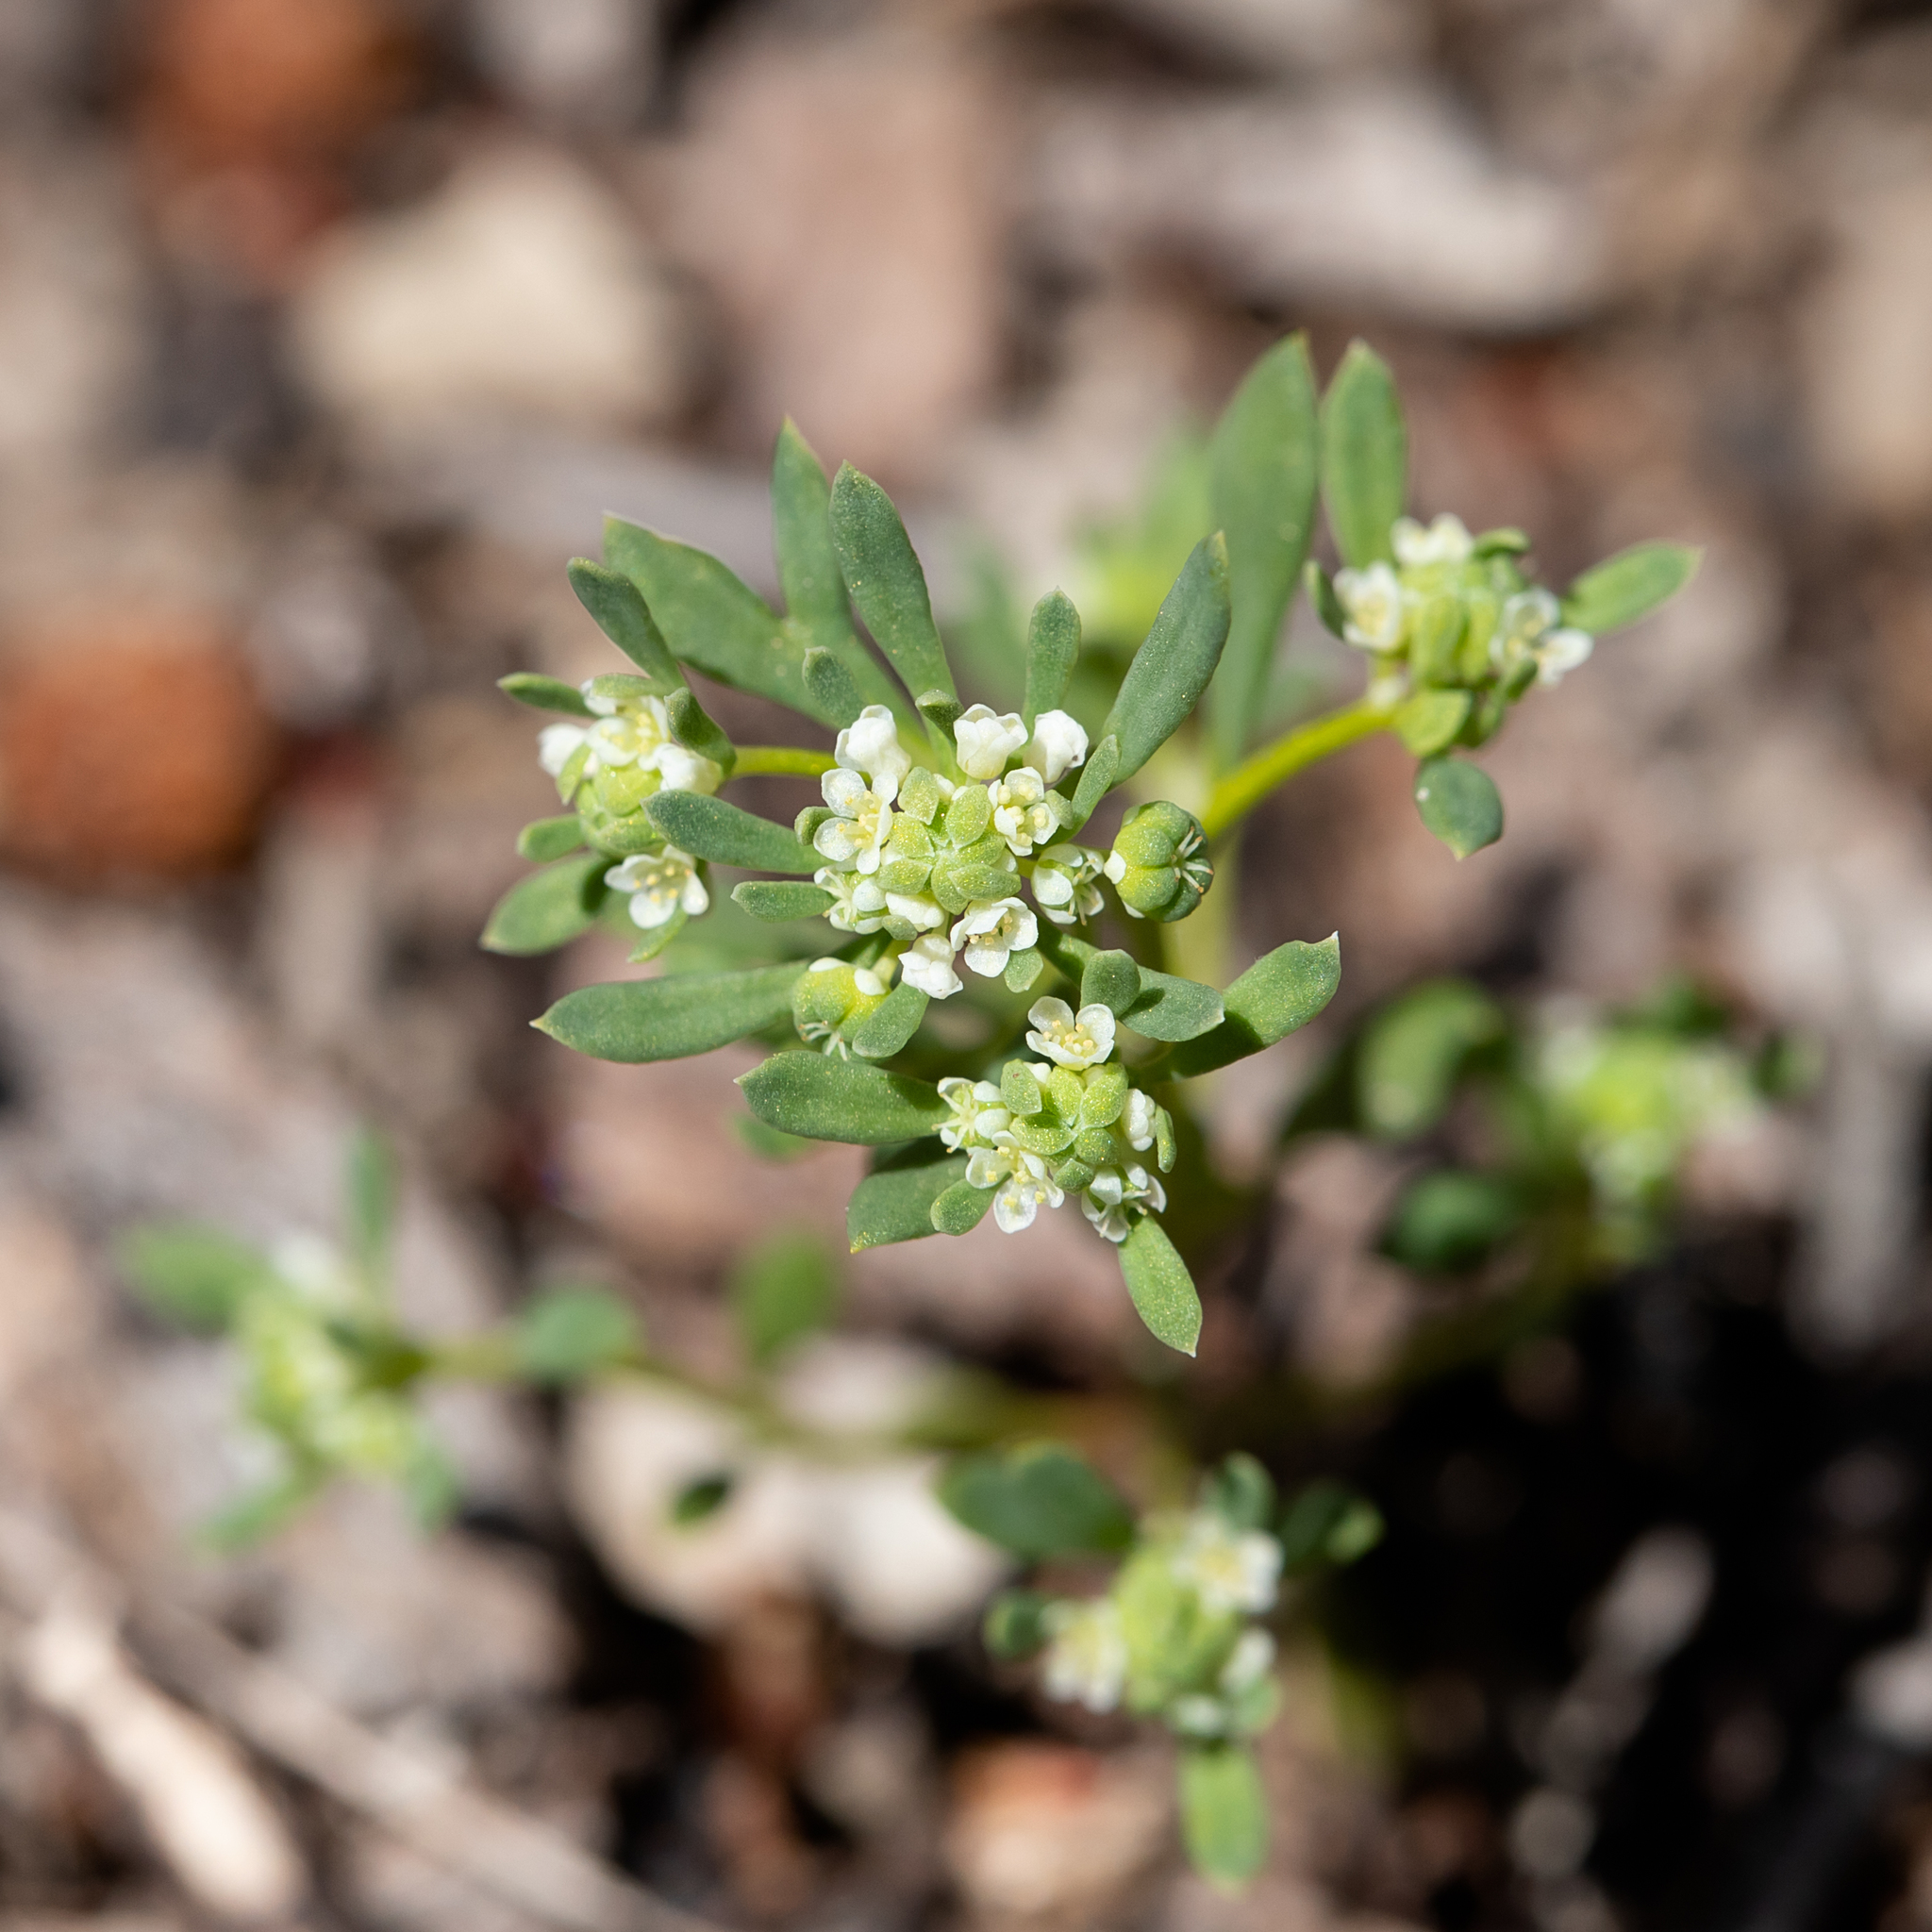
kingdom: Plantae
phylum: Tracheophyta
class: Magnoliopsida
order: Malpighiales
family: Phyllanthaceae
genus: Poranthera
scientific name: Poranthera microphylla
